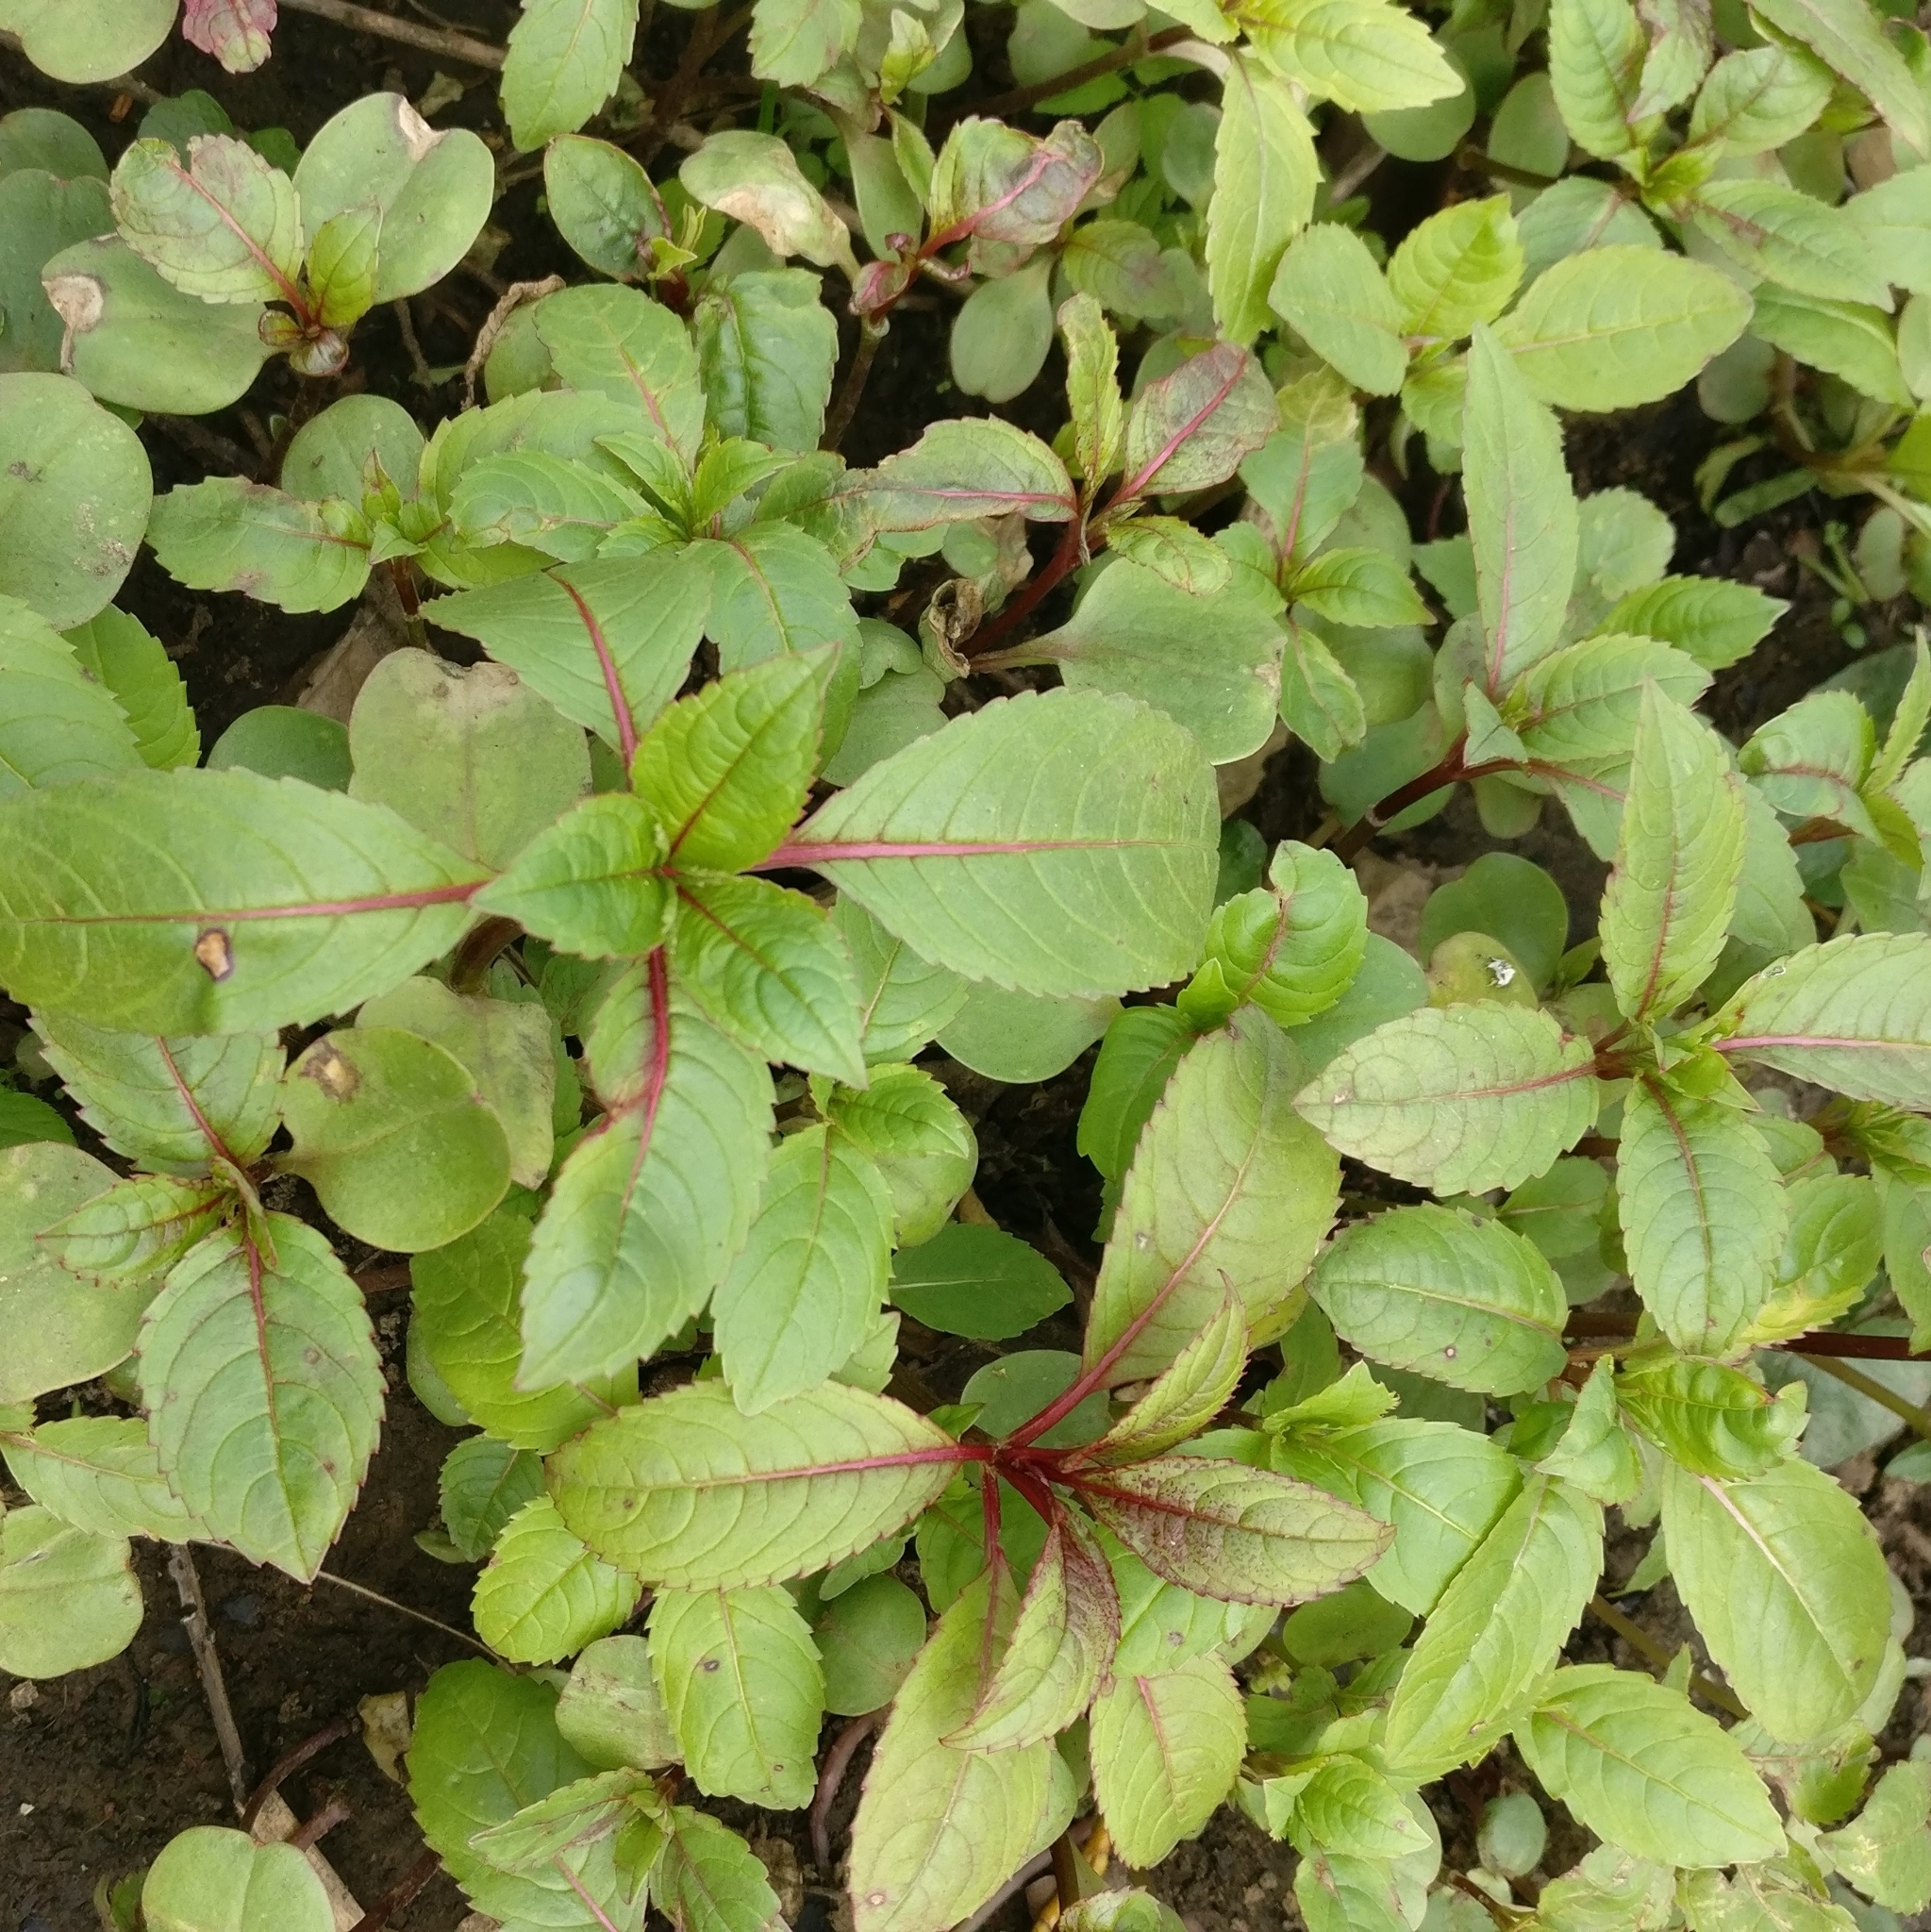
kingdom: Plantae
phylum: Tracheophyta
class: Magnoliopsida
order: Ericales
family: Balsaminaceae
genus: Impatiens
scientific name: Impatiens glandulifera
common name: Himalayan balsam
